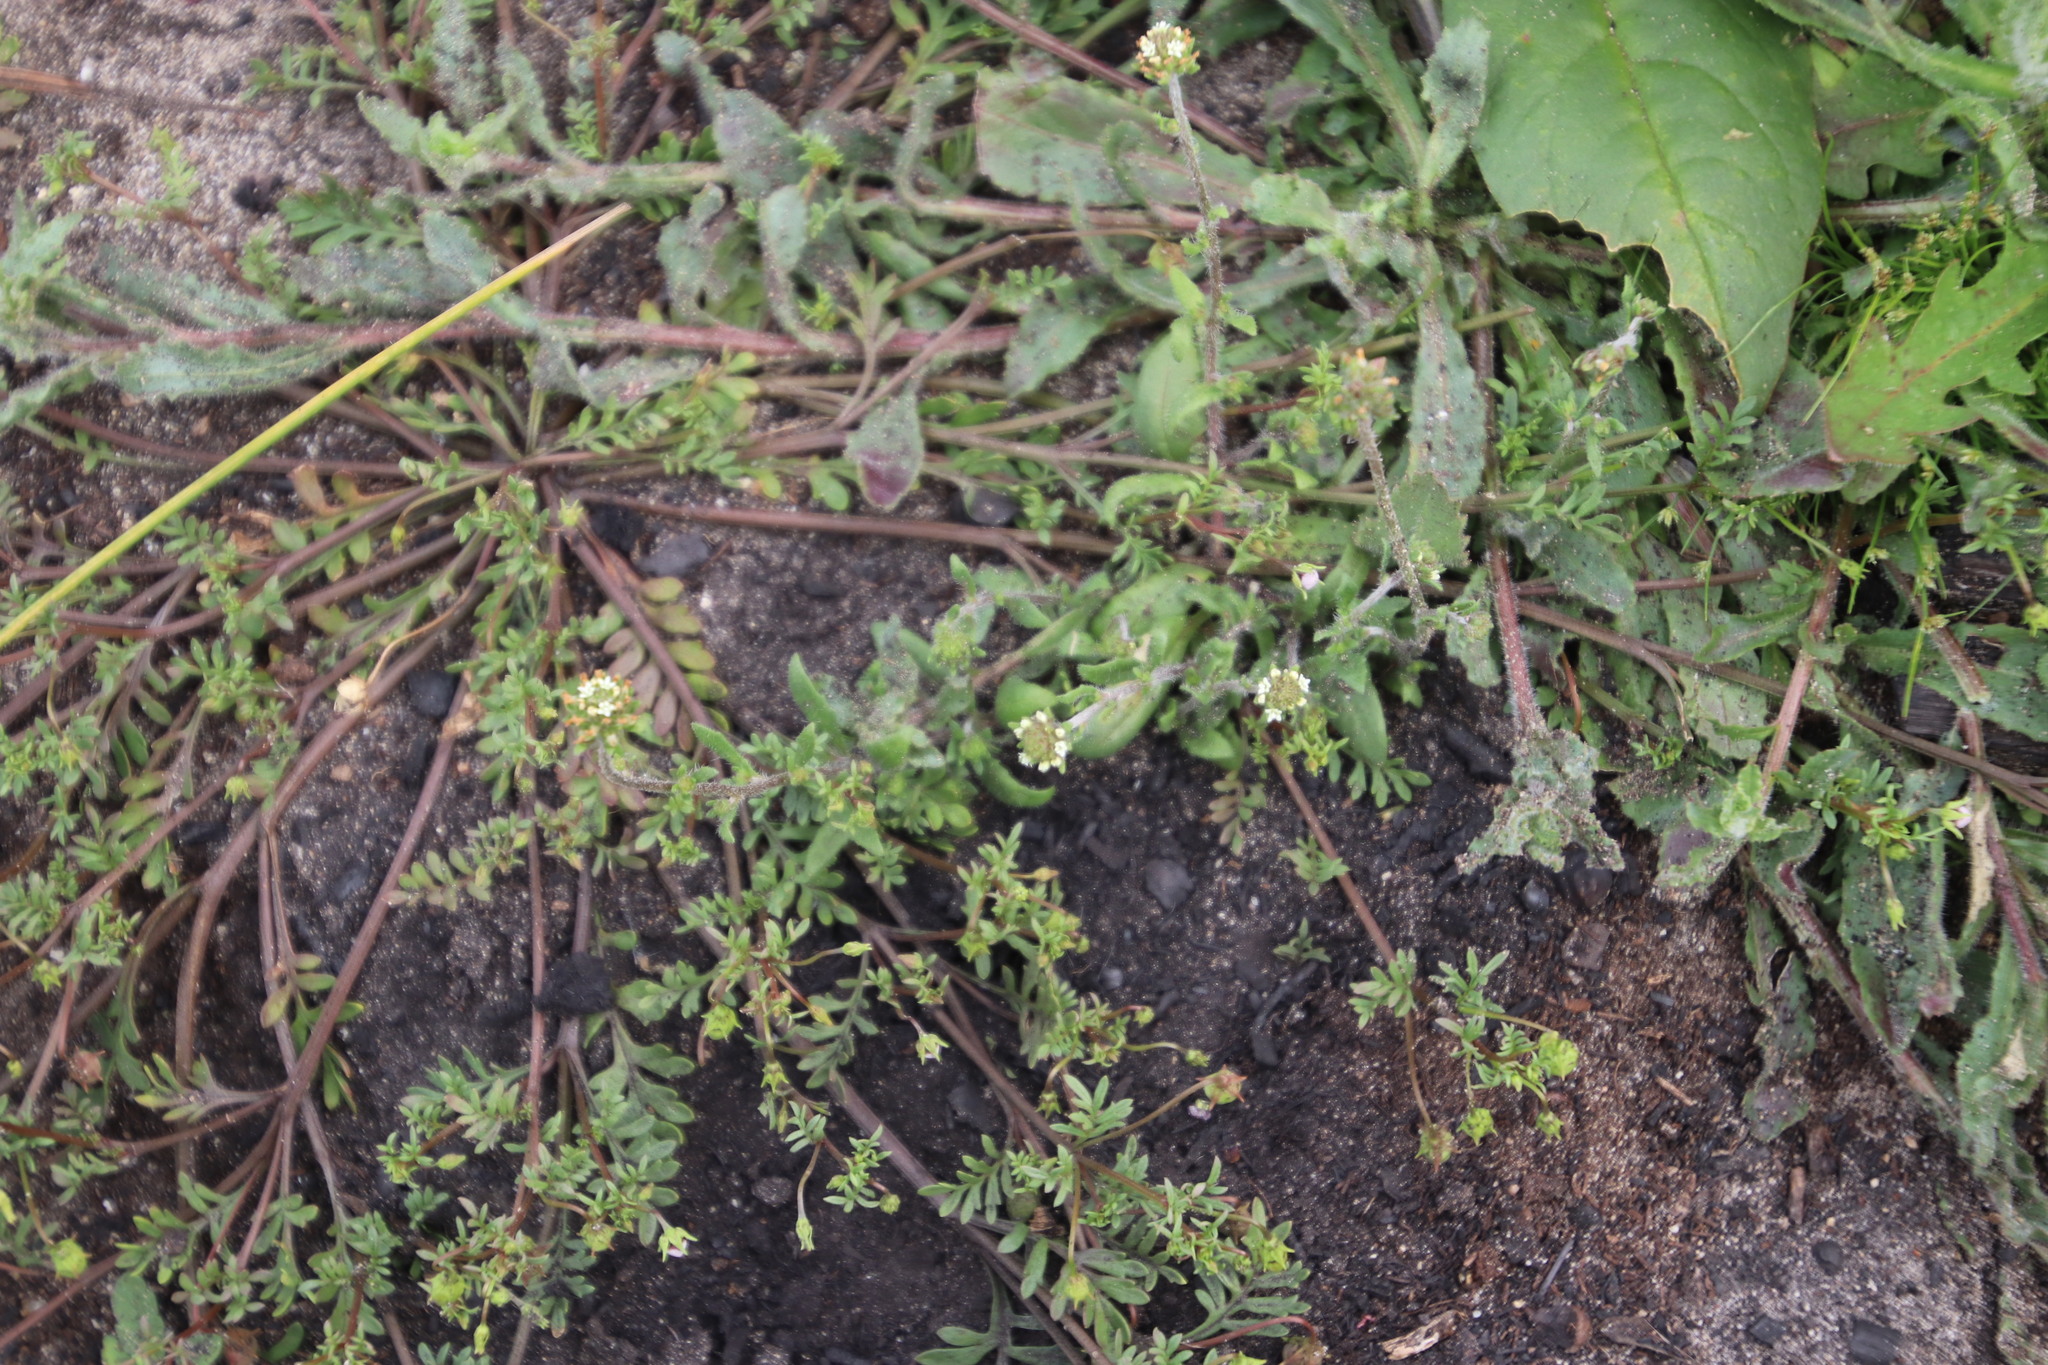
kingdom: Plantae
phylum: Tracheophyta
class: Magnoliopsida
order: Lamiales
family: Scrophulariaceae
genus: Phyllopodium
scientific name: Phyllopodium capillare
